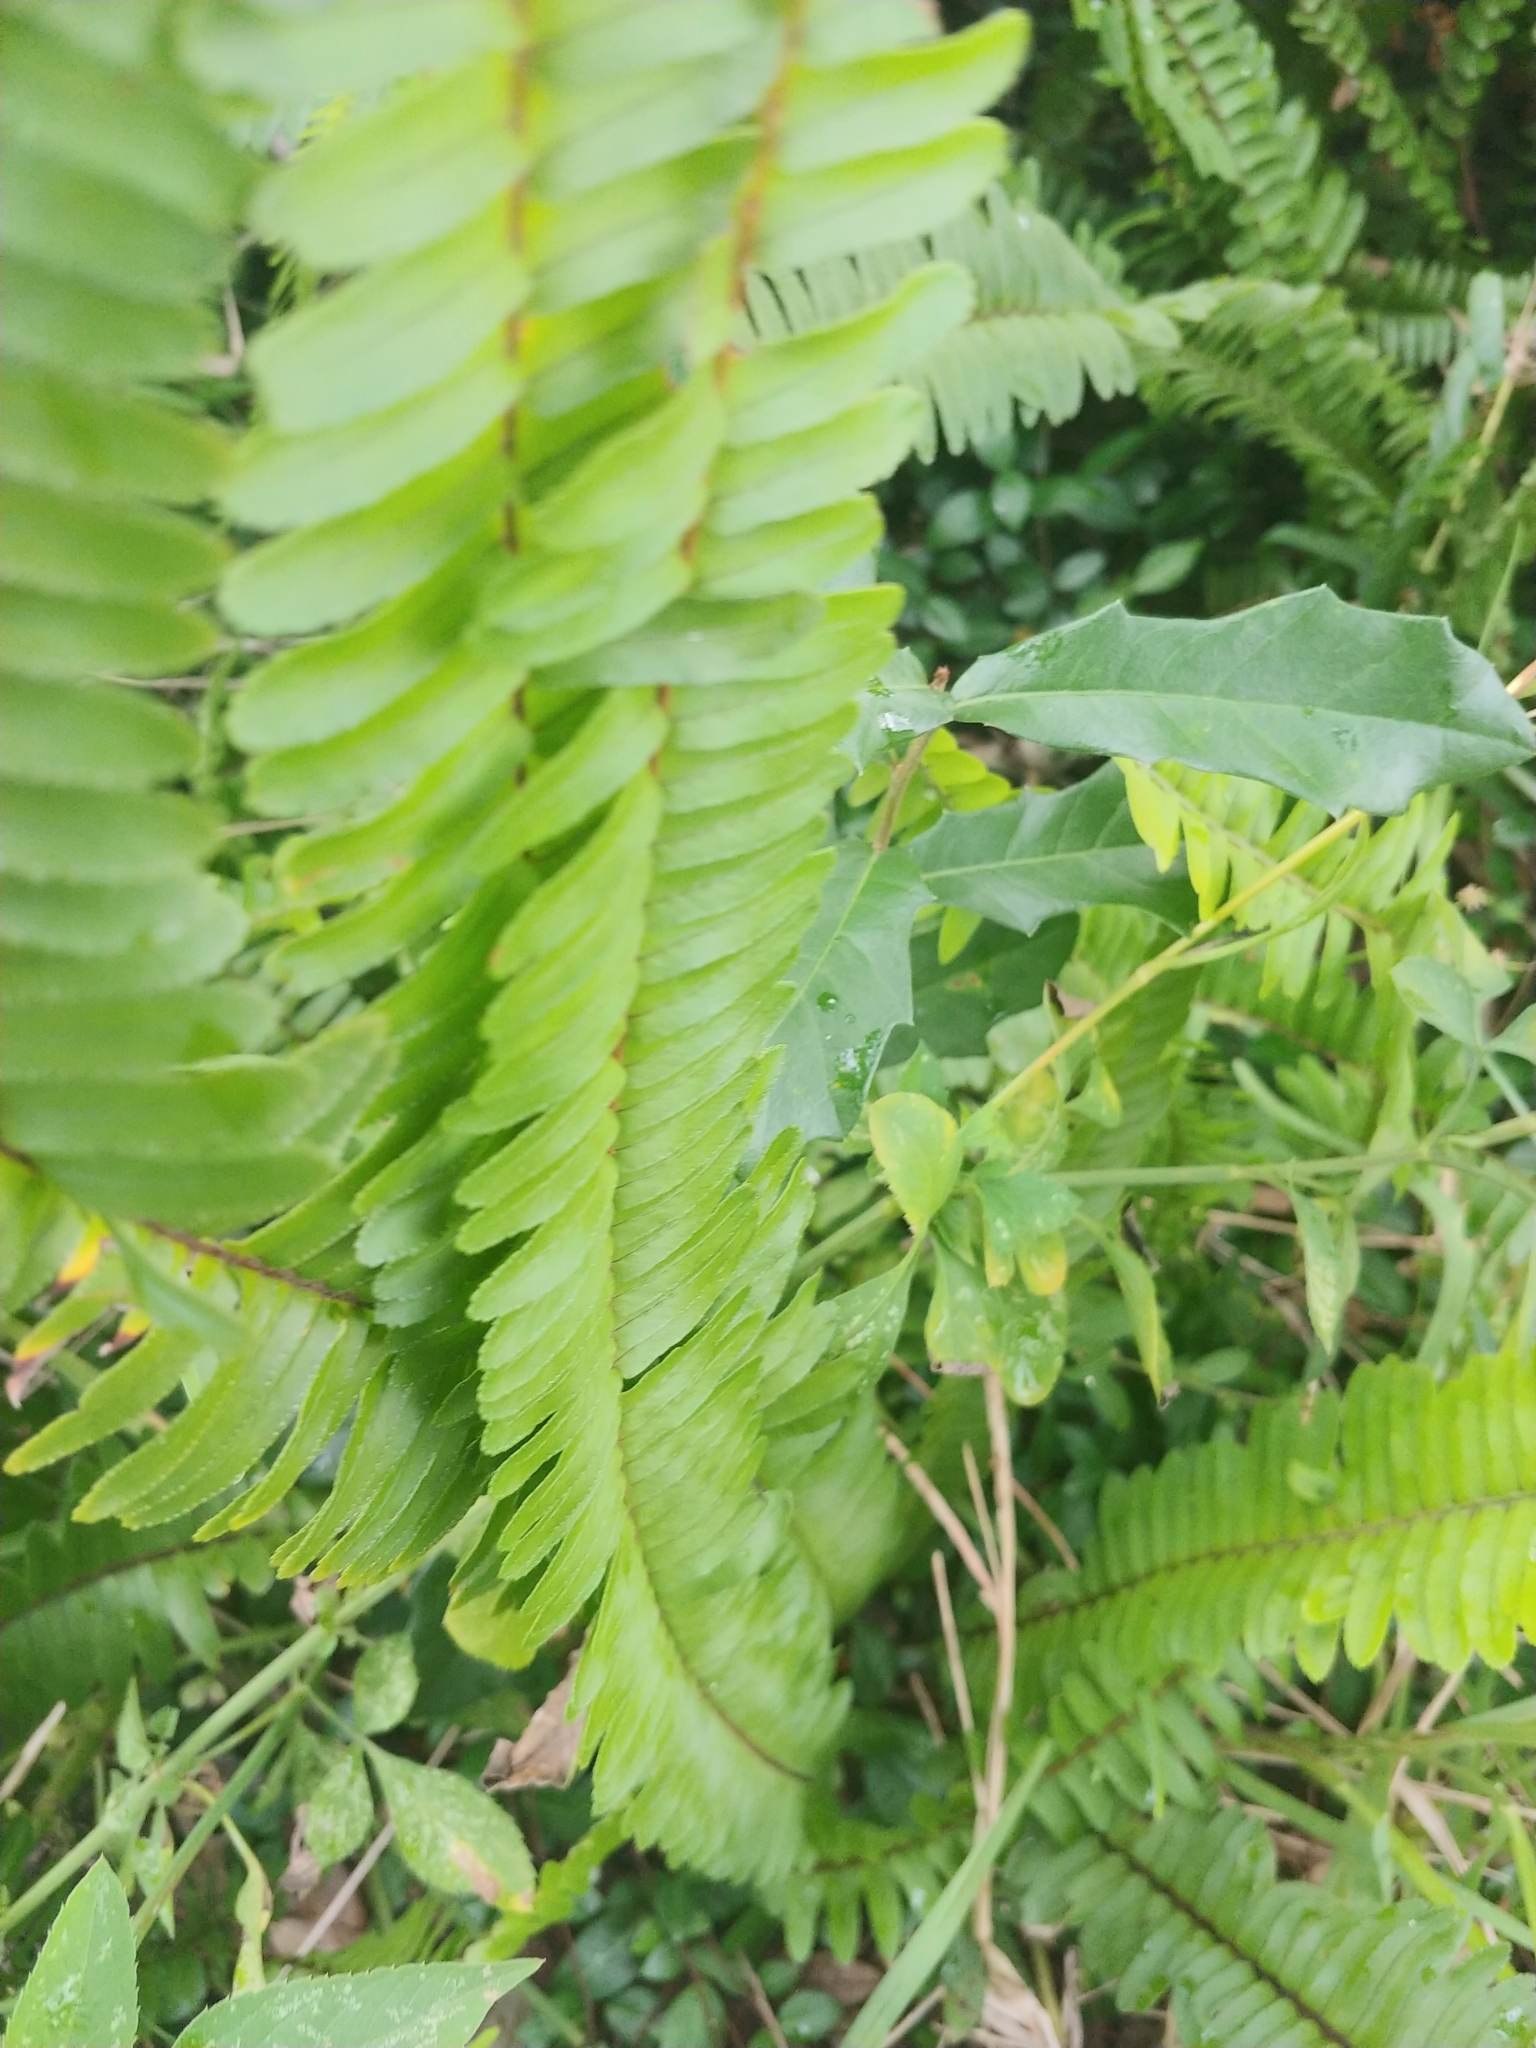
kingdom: Plantae
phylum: Tracheophyta
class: Polypodiopsida
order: Polypodiales
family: Nephrolepidaceae
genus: Nephrolepis
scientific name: Nephrolepis cordifolia
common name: Narrow swordfern
